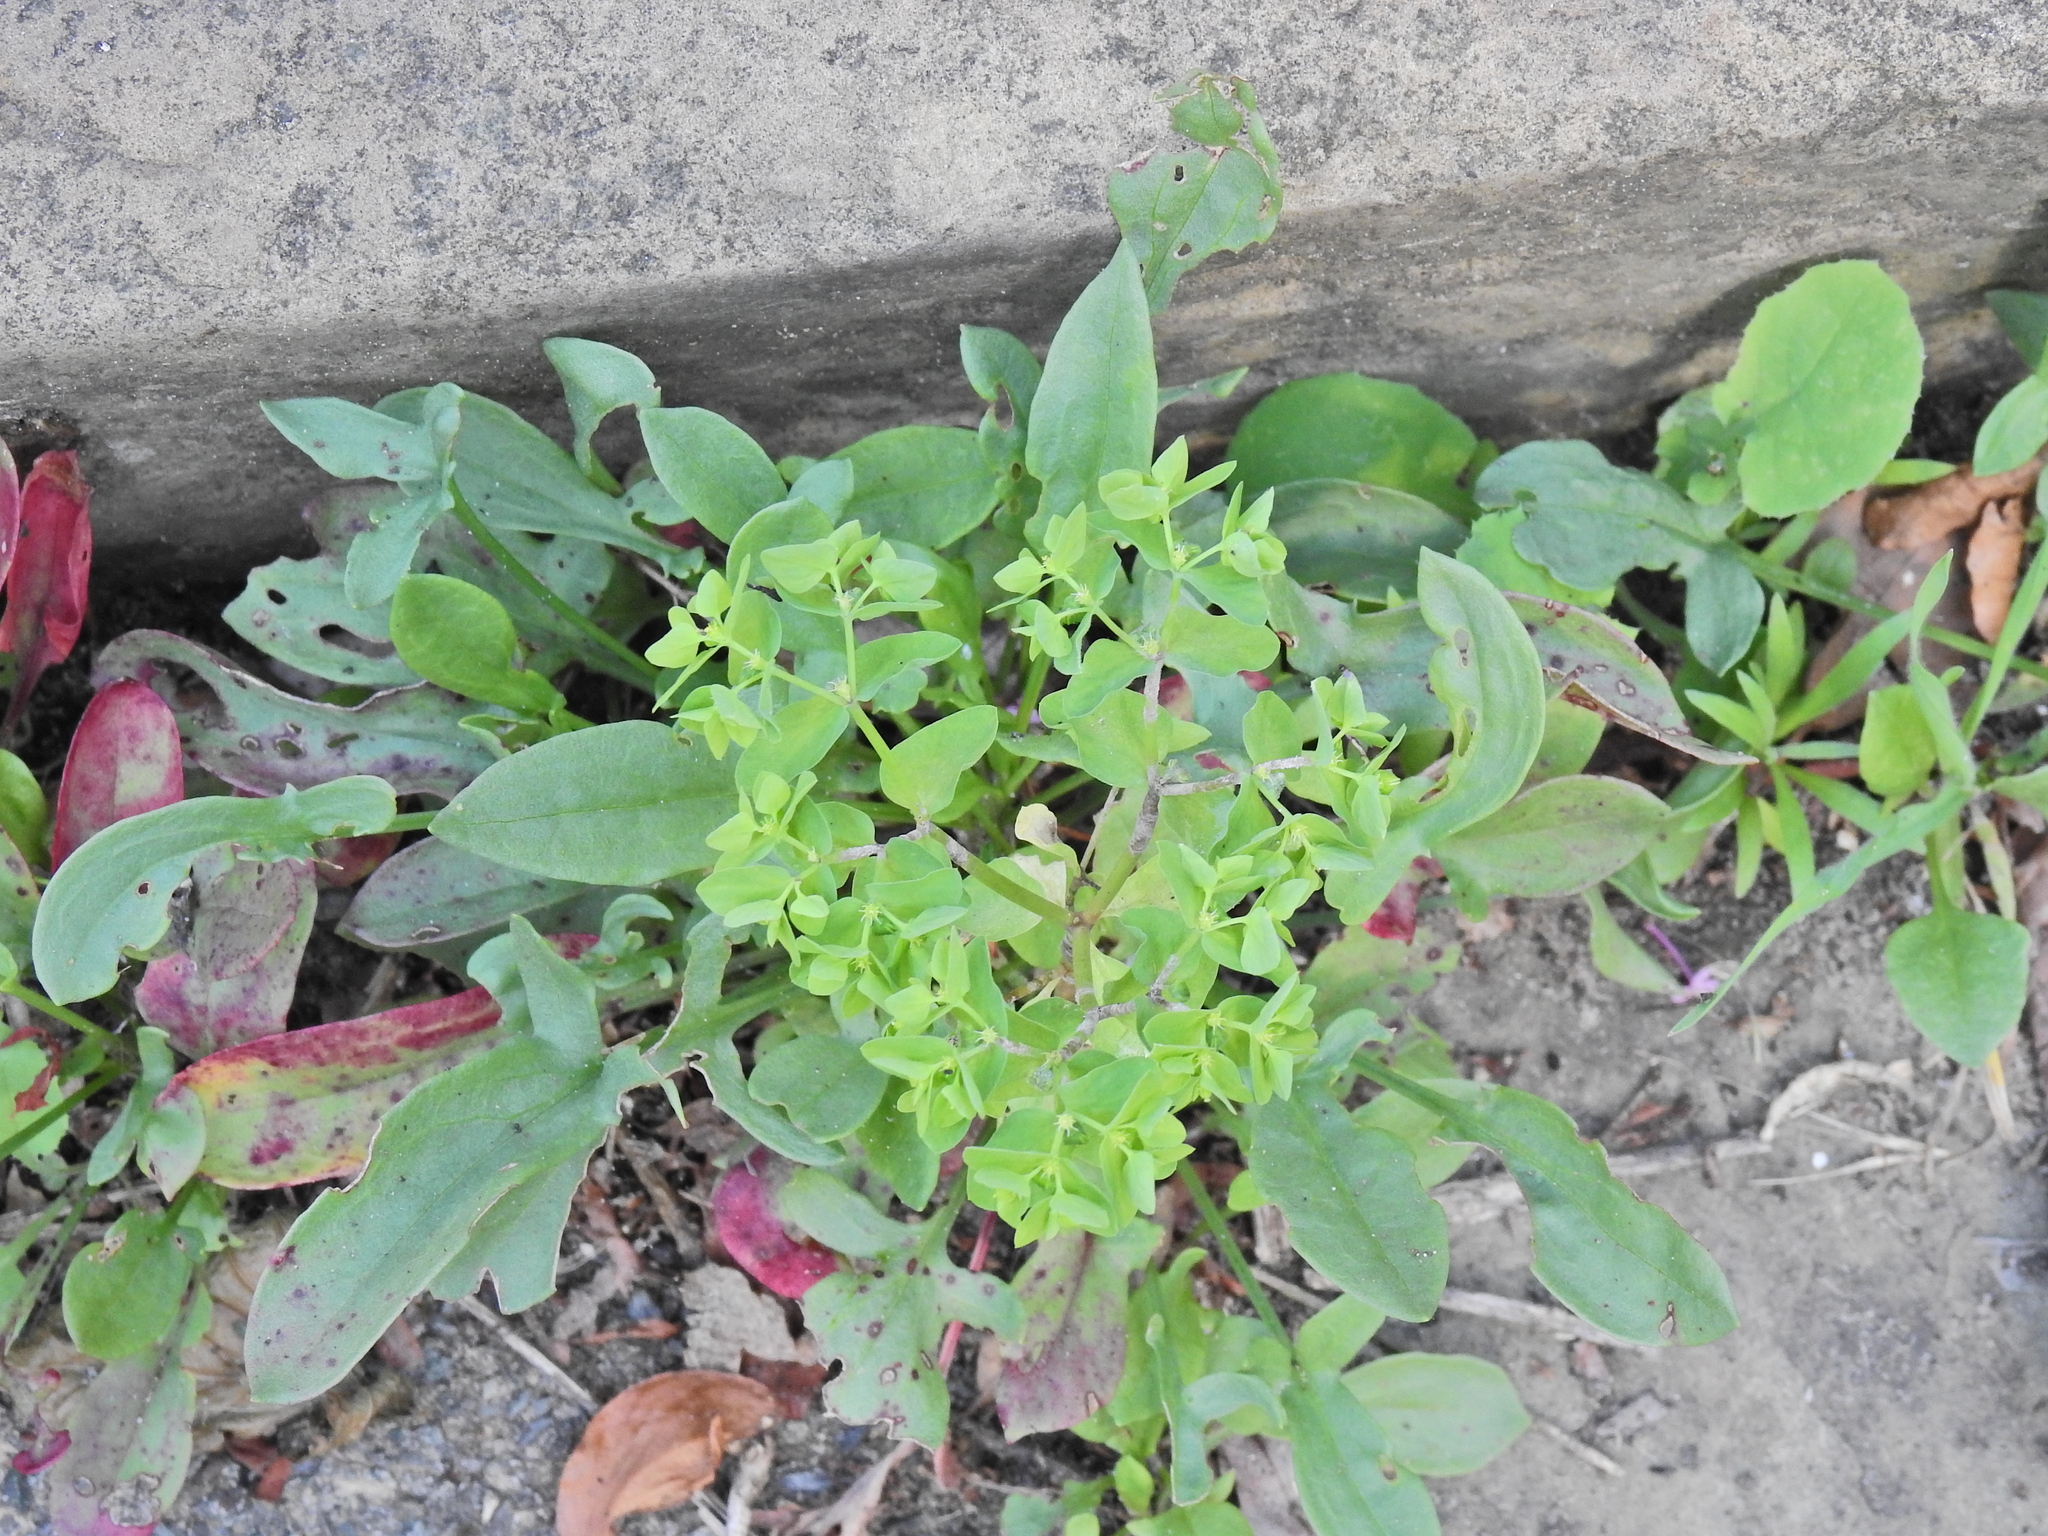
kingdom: Plantae
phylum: Tracheophyta
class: Magnoliopsida
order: Malpighiales
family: Euphorbiaceae
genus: Euphorbia
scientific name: Euphorbia peplus
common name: Petty spurge
